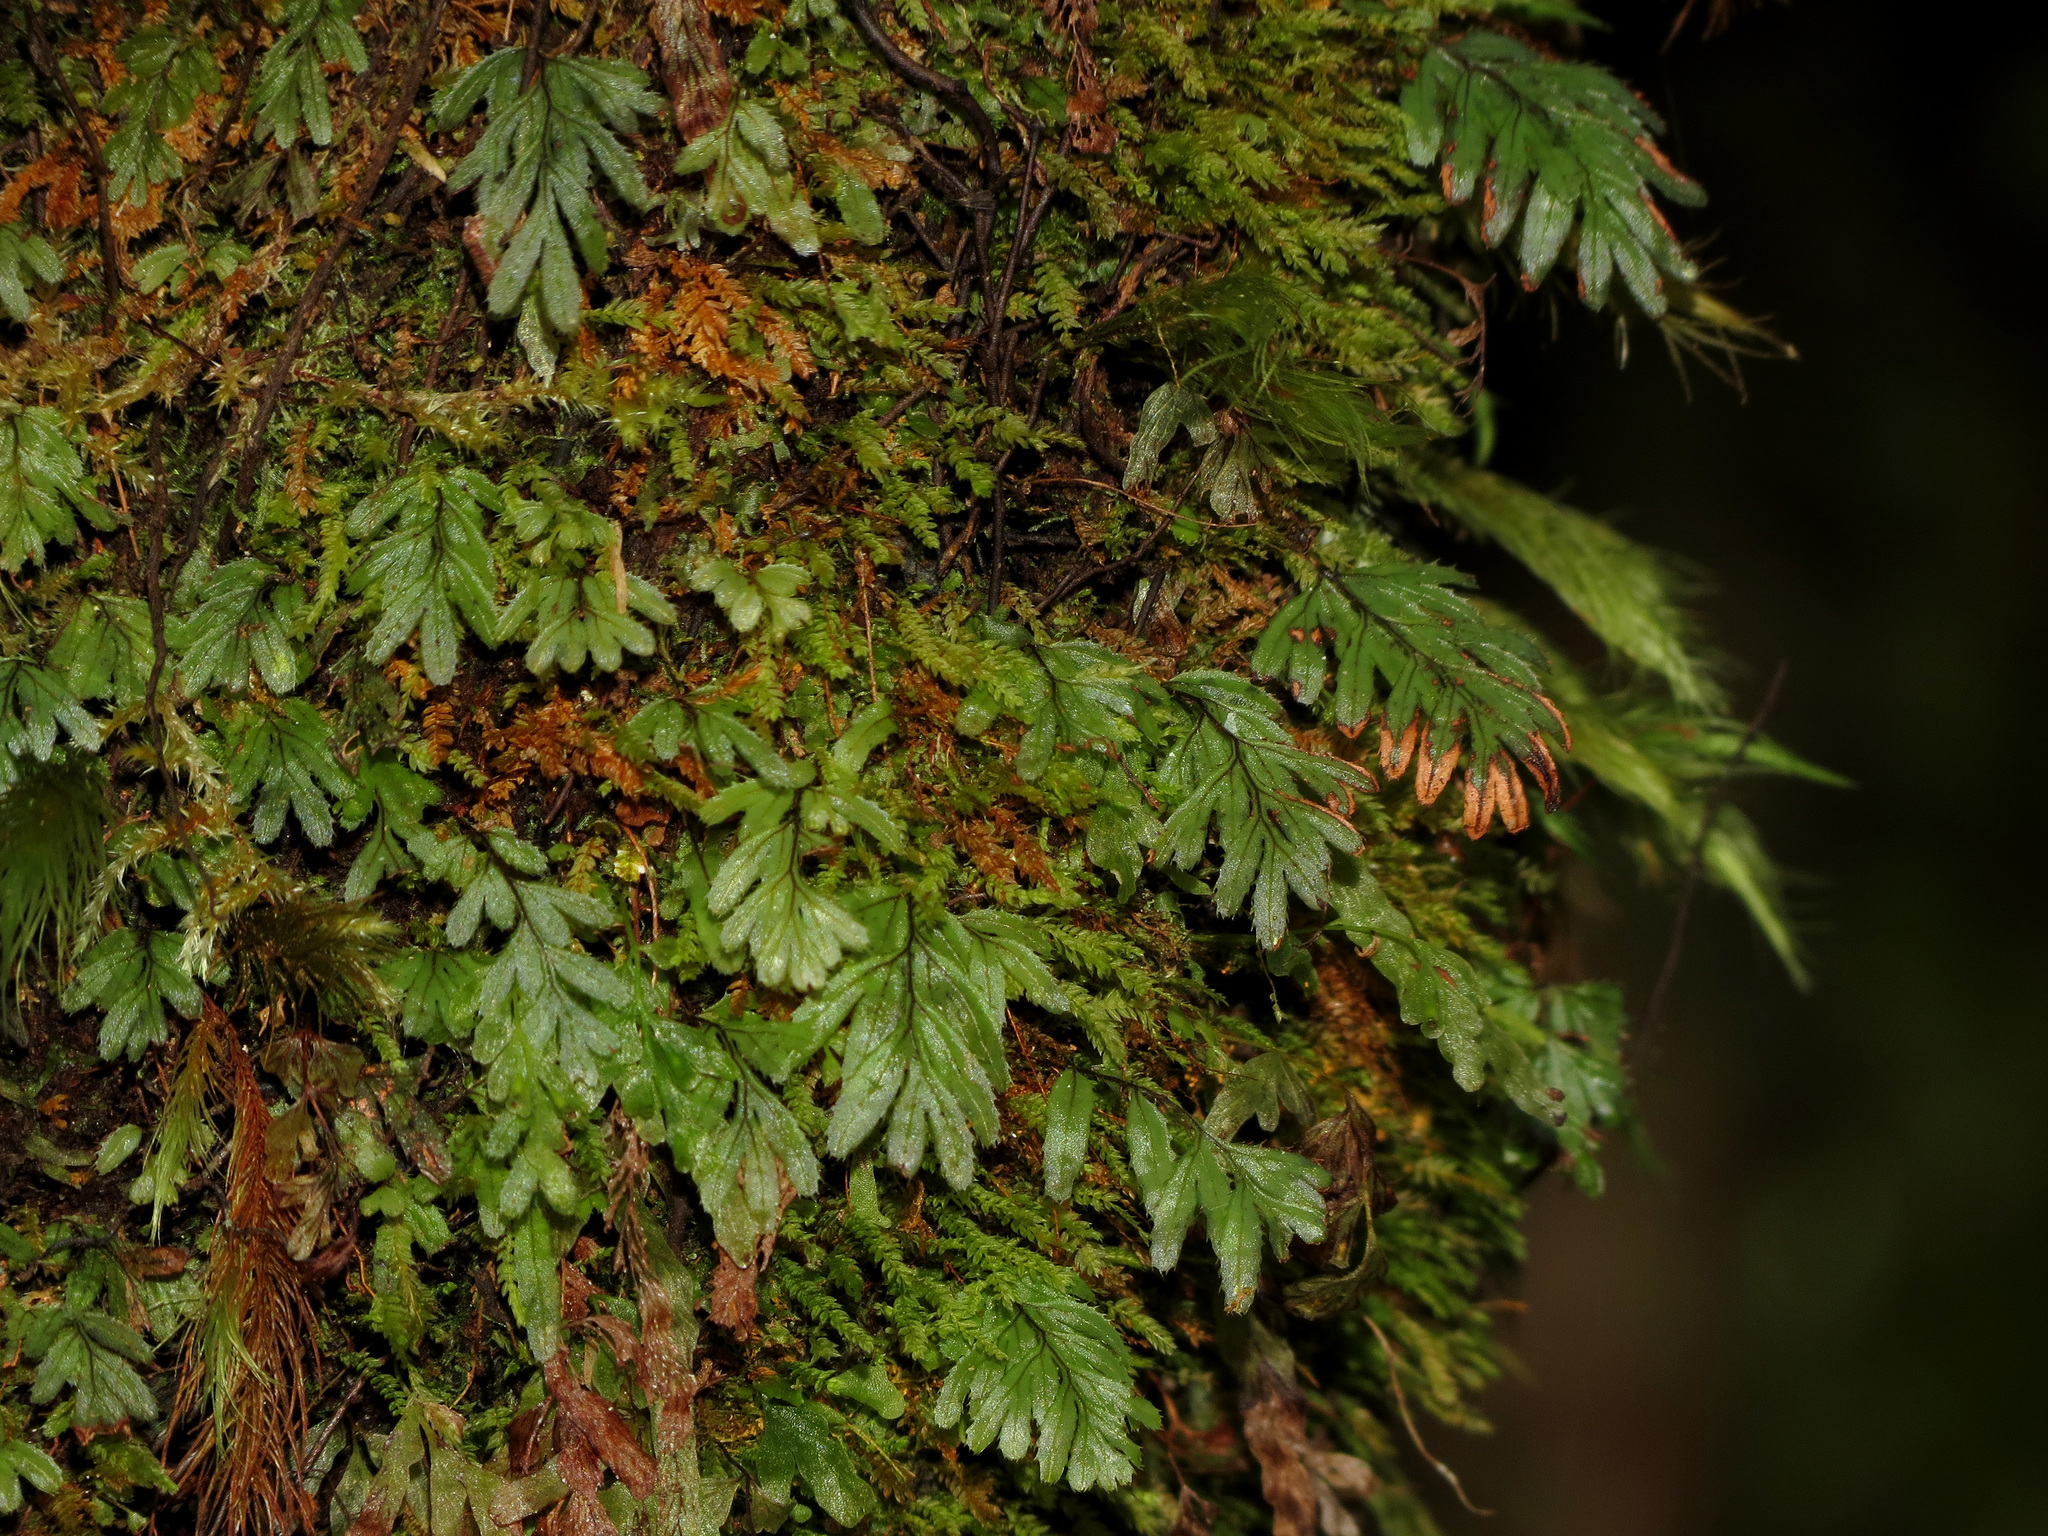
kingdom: Plantae
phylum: Tracheophyta
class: Polypodiopsida
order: Hymenophyllales
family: Hymenophyllaceae
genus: Hymenophyllum
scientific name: Hymenophyllum revolutum
